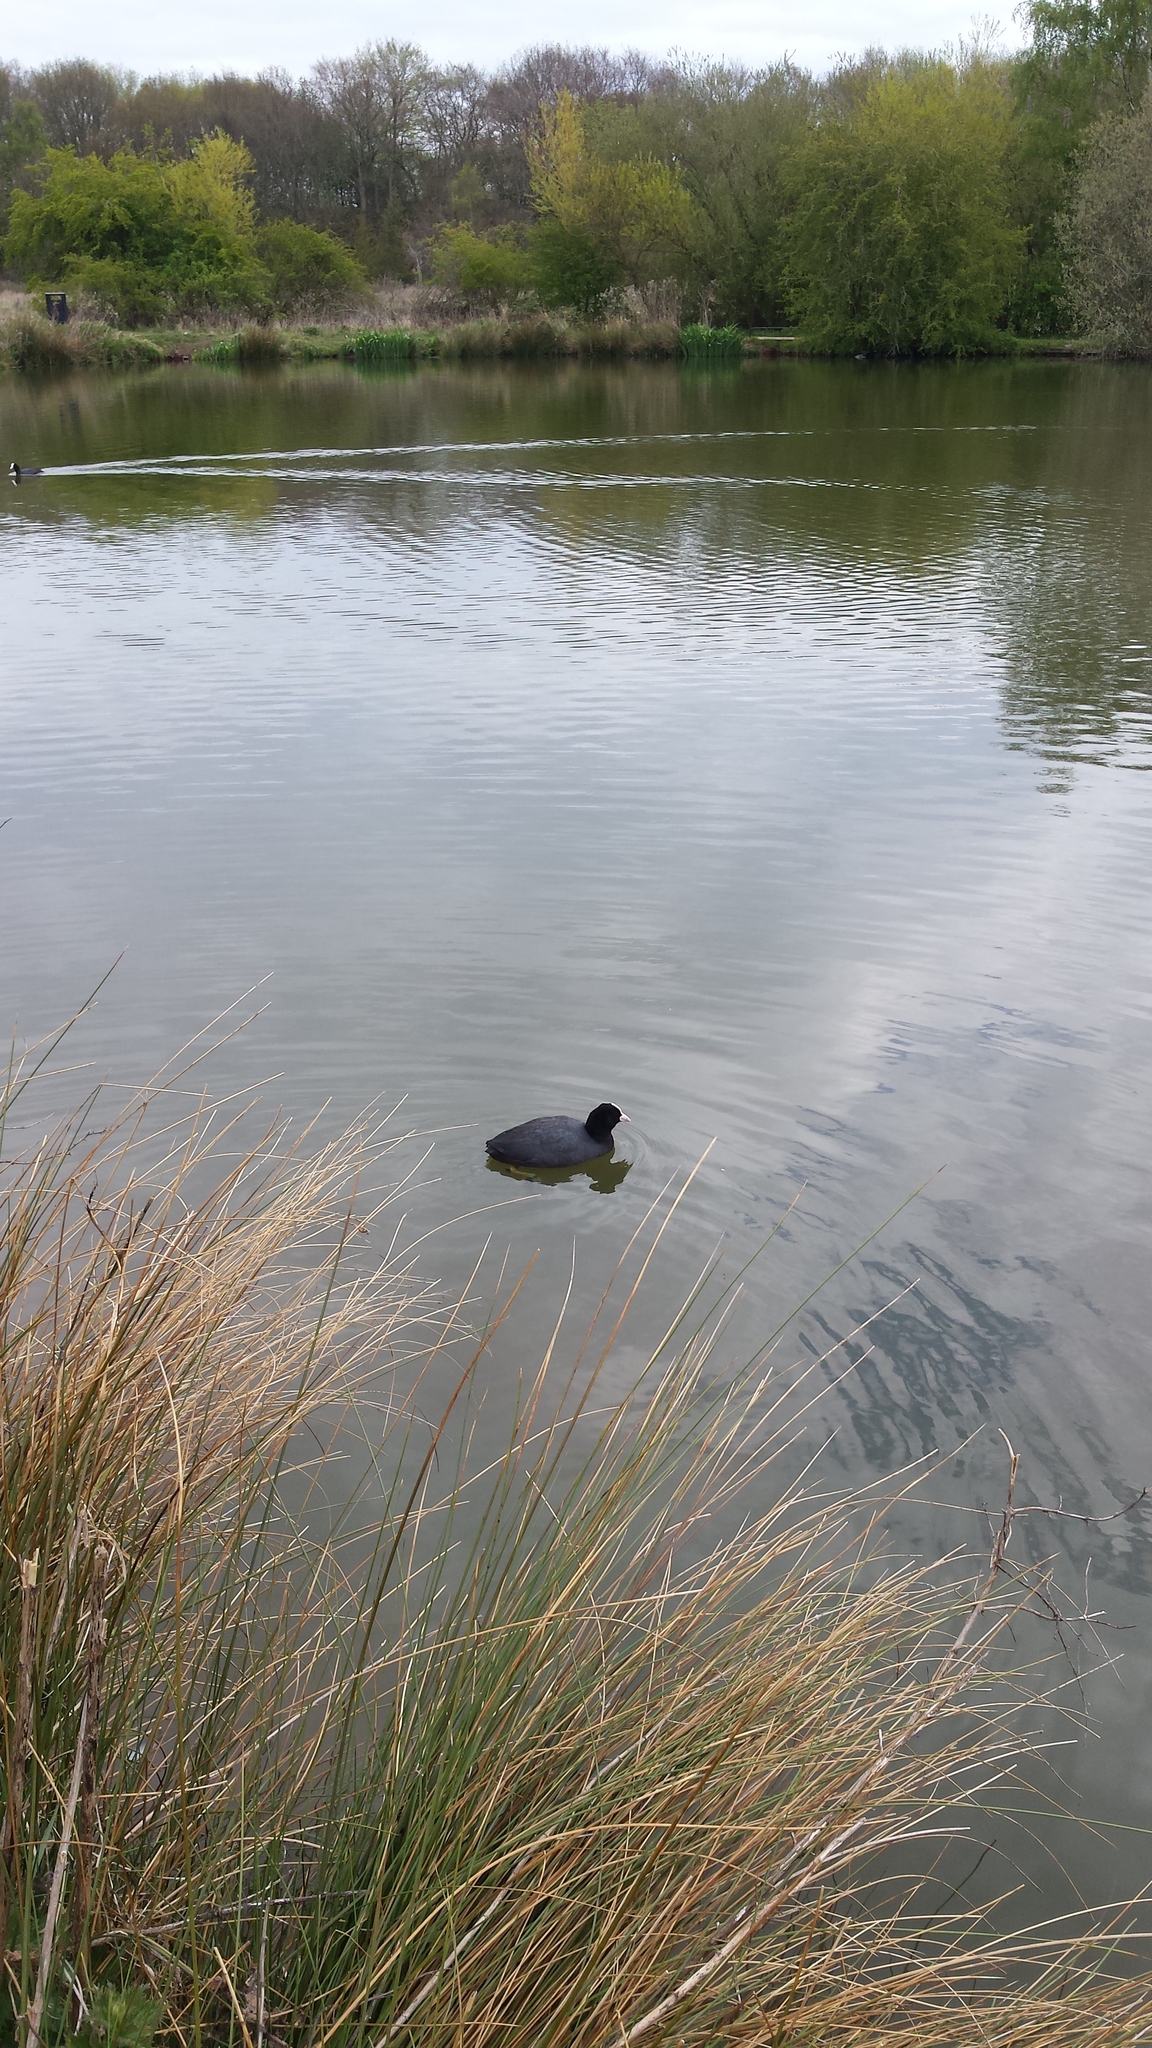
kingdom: Animalia
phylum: Chordata
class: Aves
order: Gruiformes
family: Rallidae
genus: Fulica
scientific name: Fulica atra
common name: Eurasian coot
